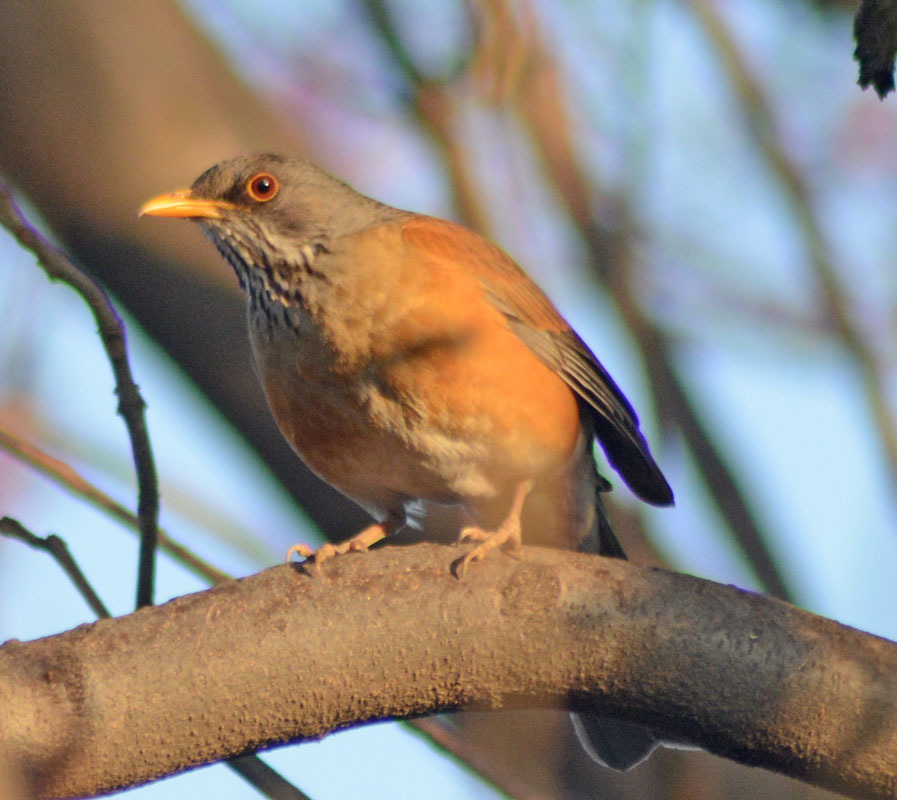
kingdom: Animalia
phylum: Chordata
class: Aves
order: Passeriformes
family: Turdidae
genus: Turdus
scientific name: Turdus rufopalliatus
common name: Rufous-backed robin
